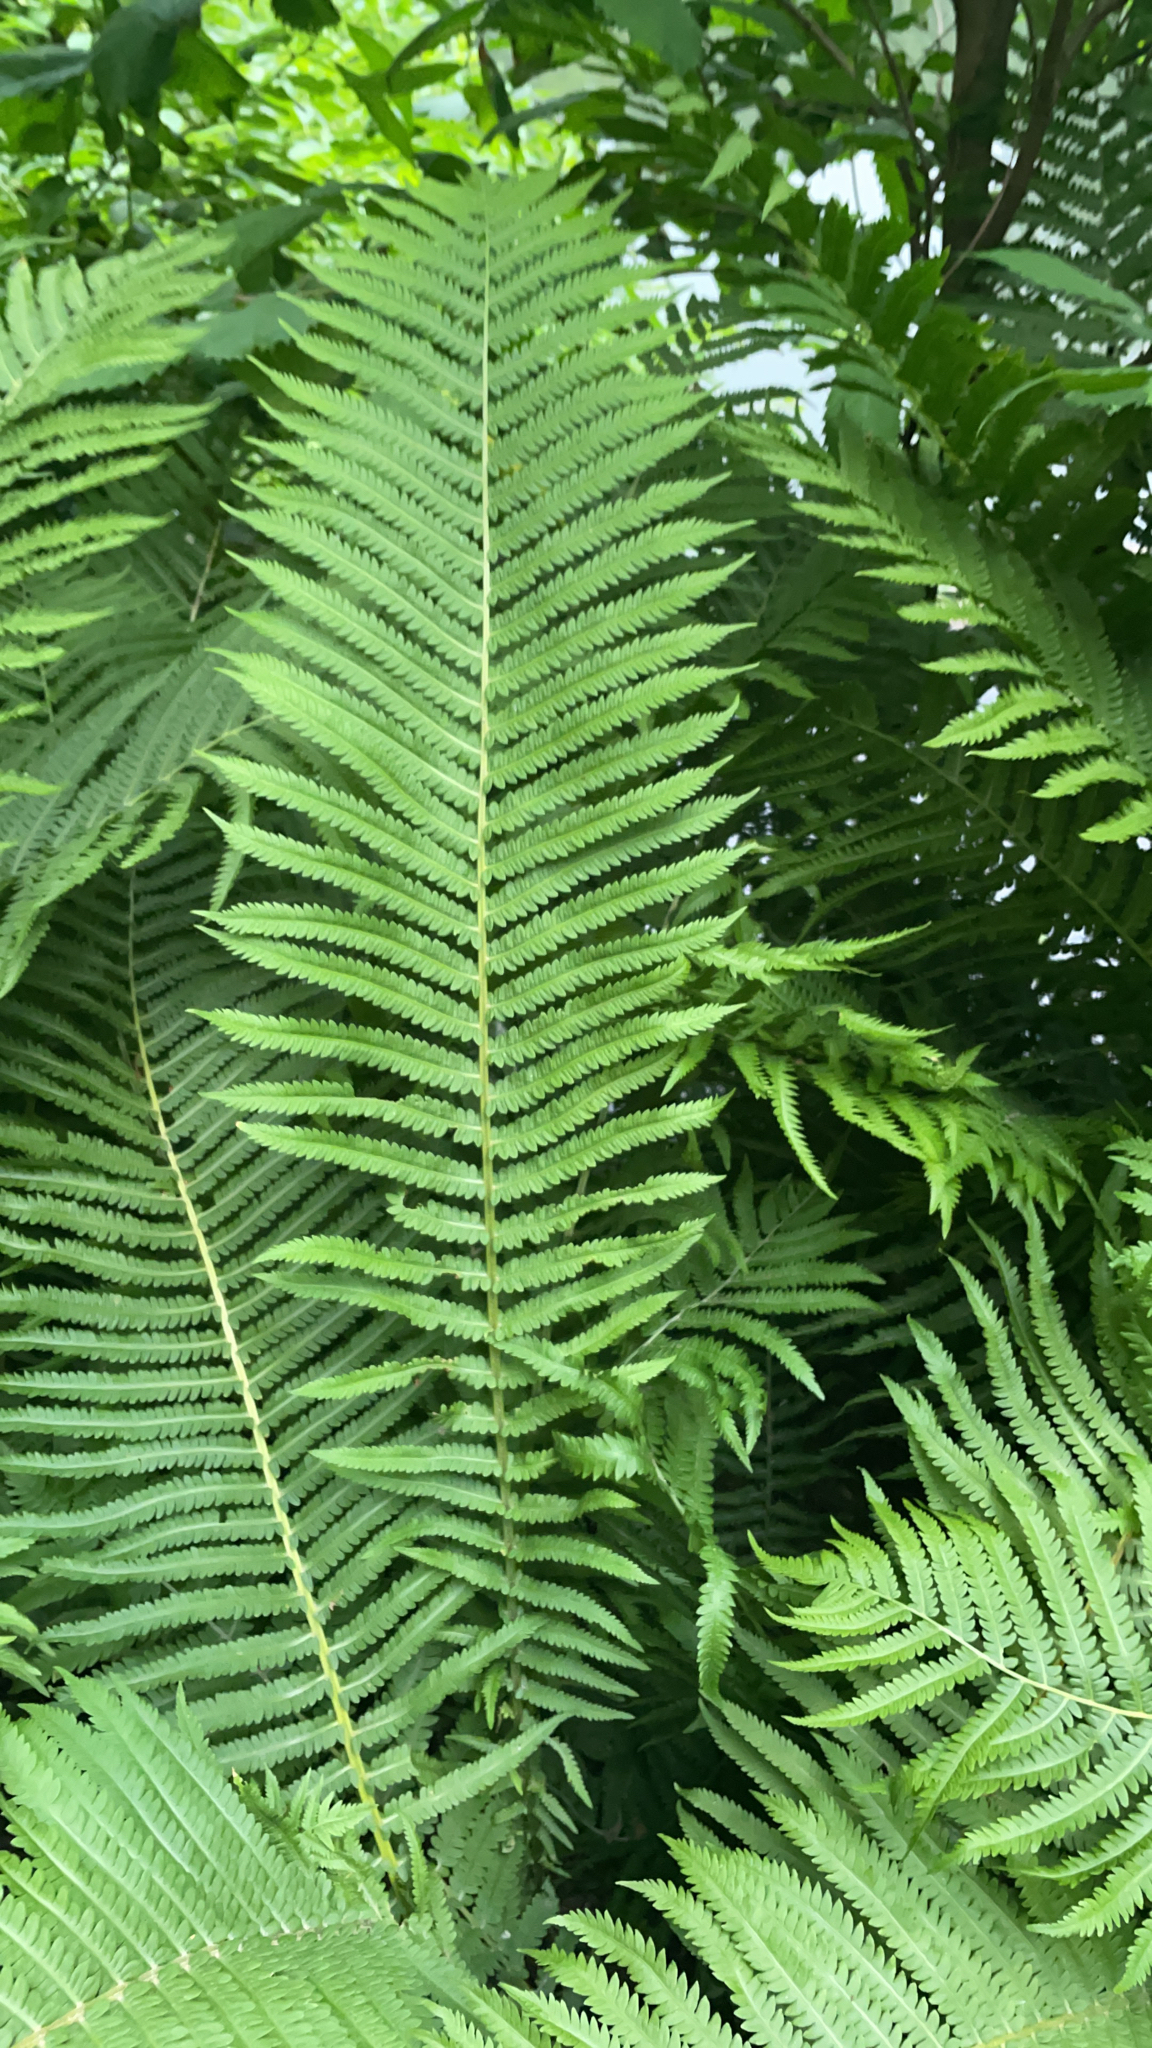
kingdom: Plantae
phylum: Tracheophyta
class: Polypodiopsida
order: Polypodiales
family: Onocleaceae
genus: Matteuccia
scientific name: Matteuccia struthiopteris
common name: Ostrich fern
